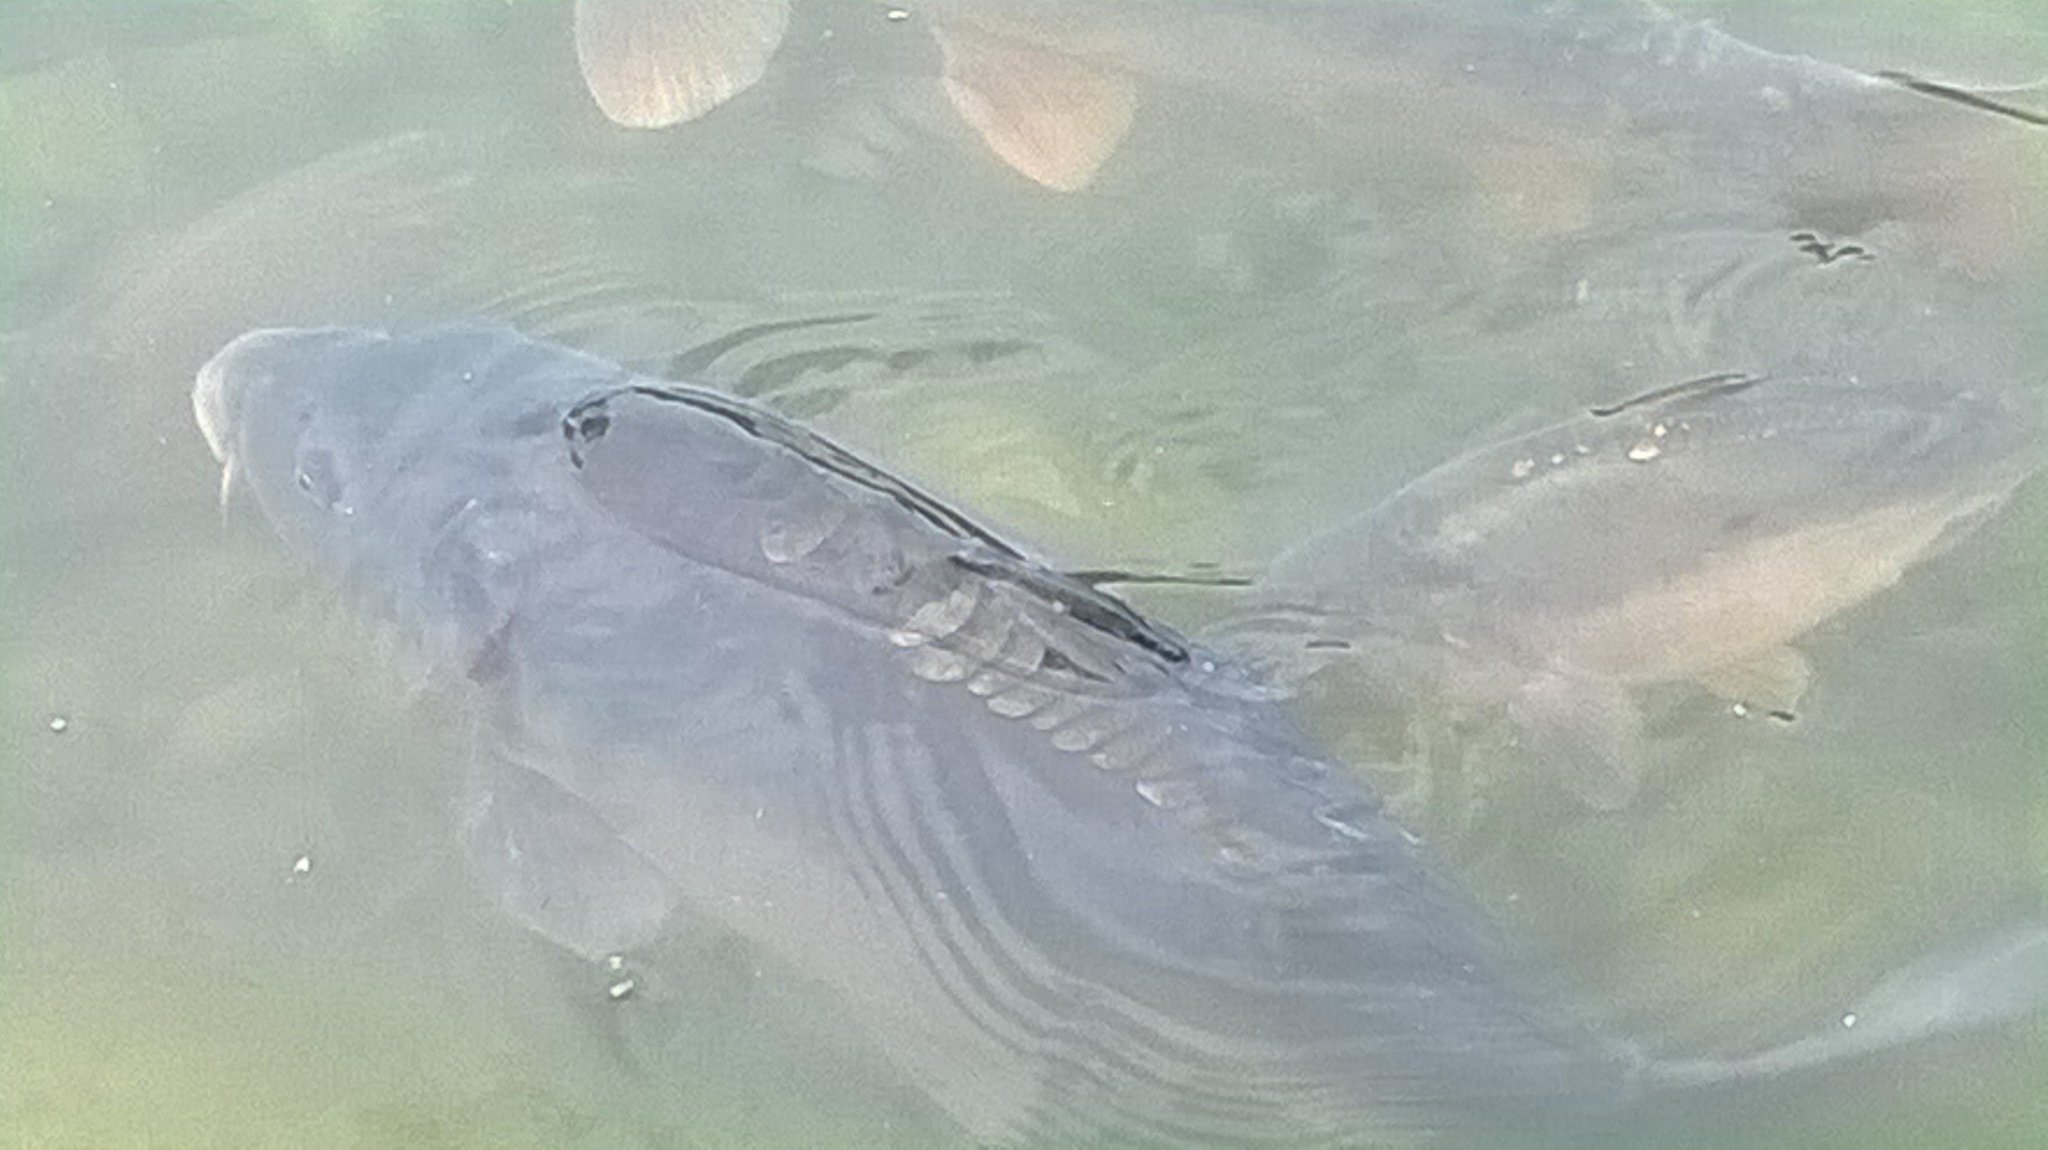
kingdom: Animalia
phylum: Chordata
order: Cypriniformes
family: Cyprinidae
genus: Cyprinus
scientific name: Cyprinus carpio
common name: Common carp
